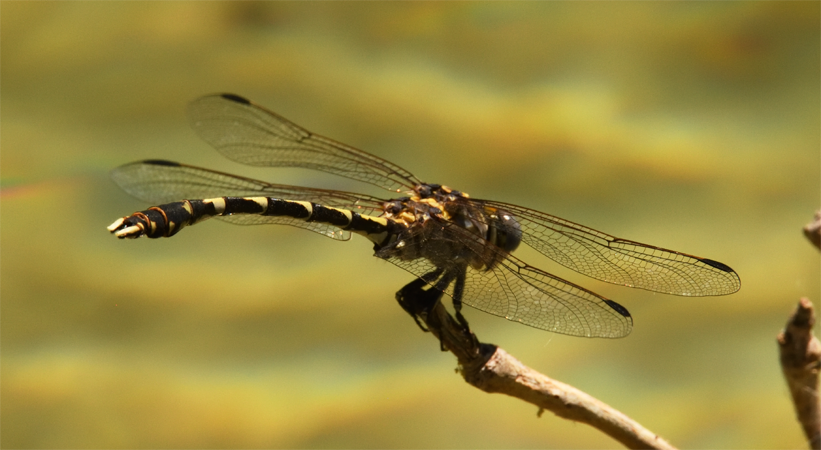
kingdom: Animalia
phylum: Arthropoda
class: Insecta
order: Odonata
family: Gomphidae
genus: Progomphus
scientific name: Progomphus borealis
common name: Gray sanddragon
